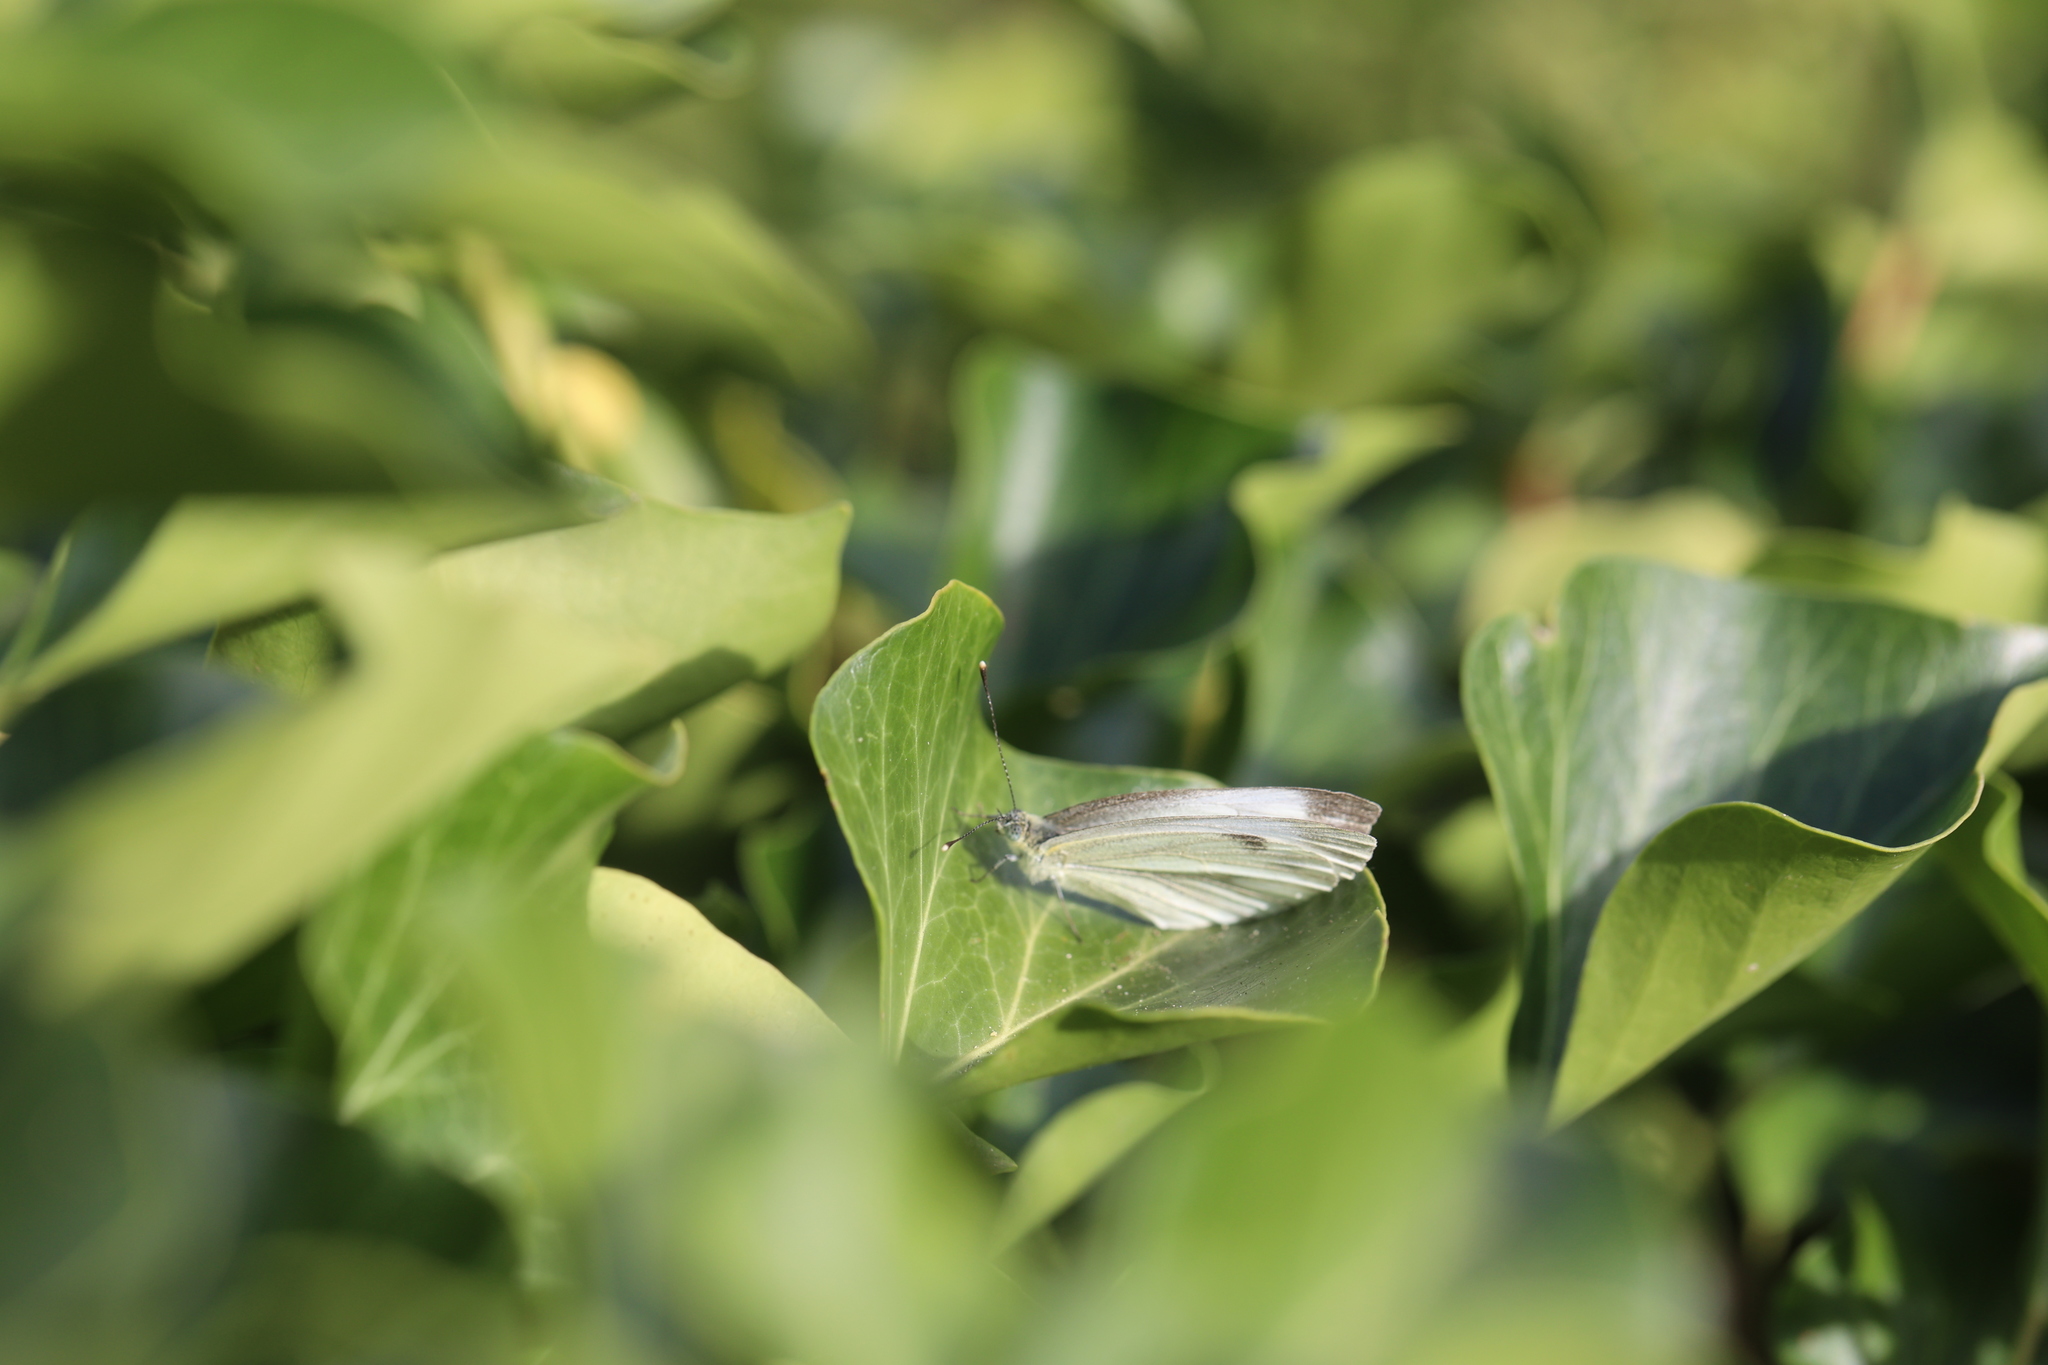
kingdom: Animalia
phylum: Arthropoda
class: Insecta
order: Lepidoptera
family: Pieridae
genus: Pieris
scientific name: Pieris napi
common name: Green-veined white
